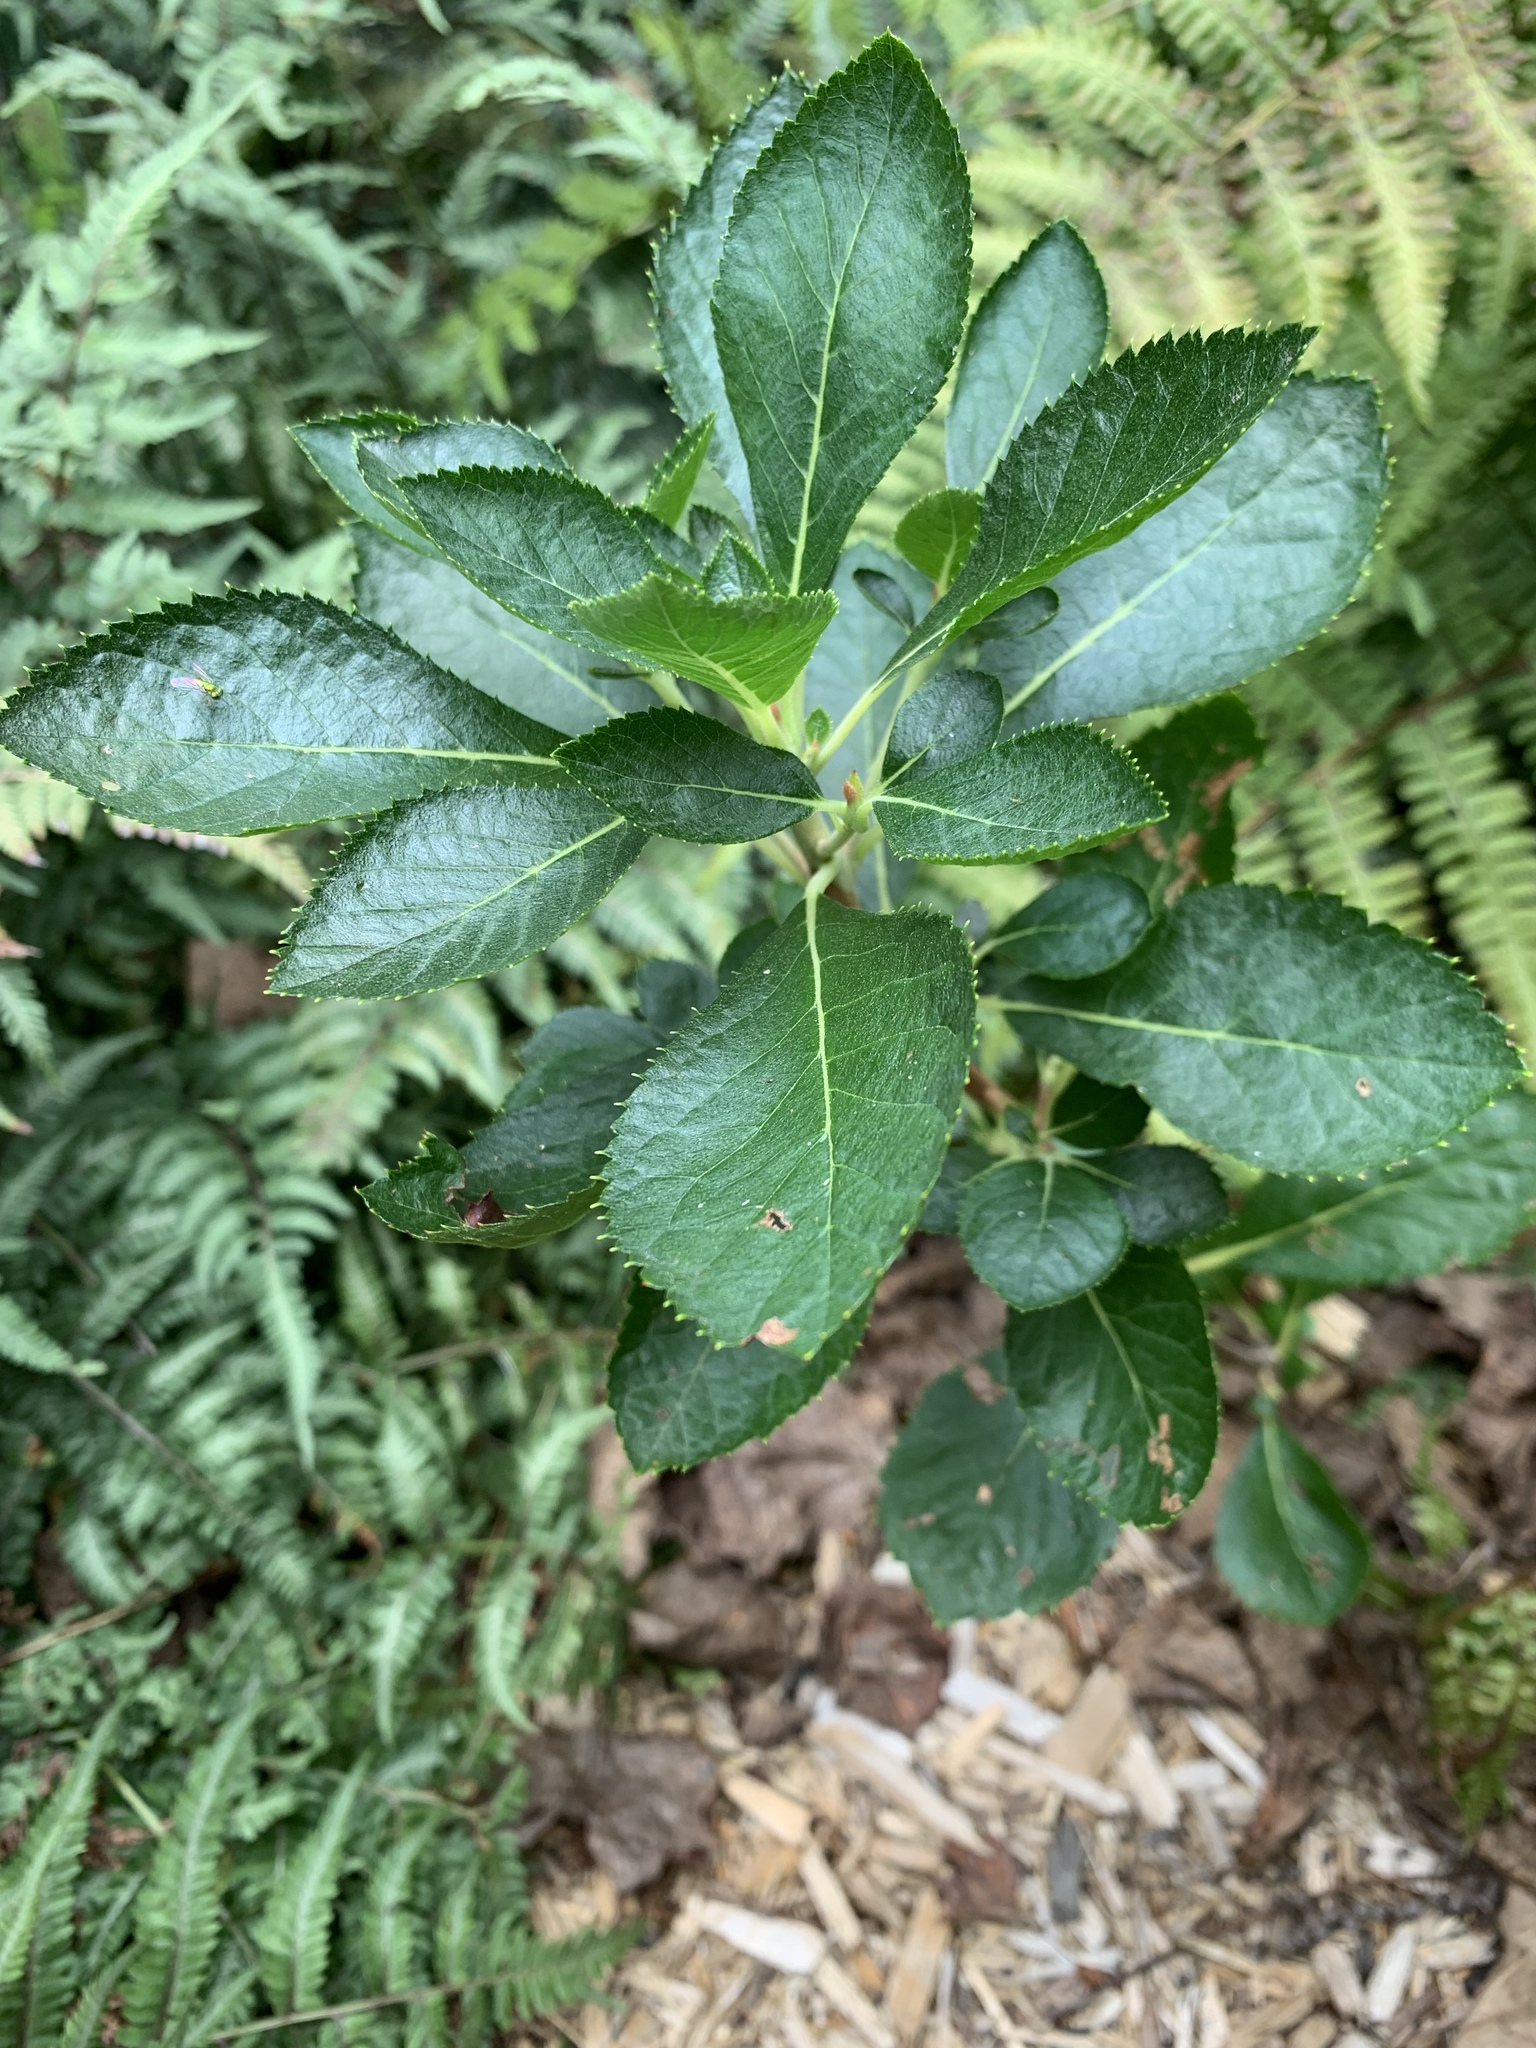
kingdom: Plantae
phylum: Tracheophyta
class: Magnoliopsida
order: Ericales
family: Clethraceae
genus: Clethra
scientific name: Clethra alnifolia
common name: Sweet pepperbush
